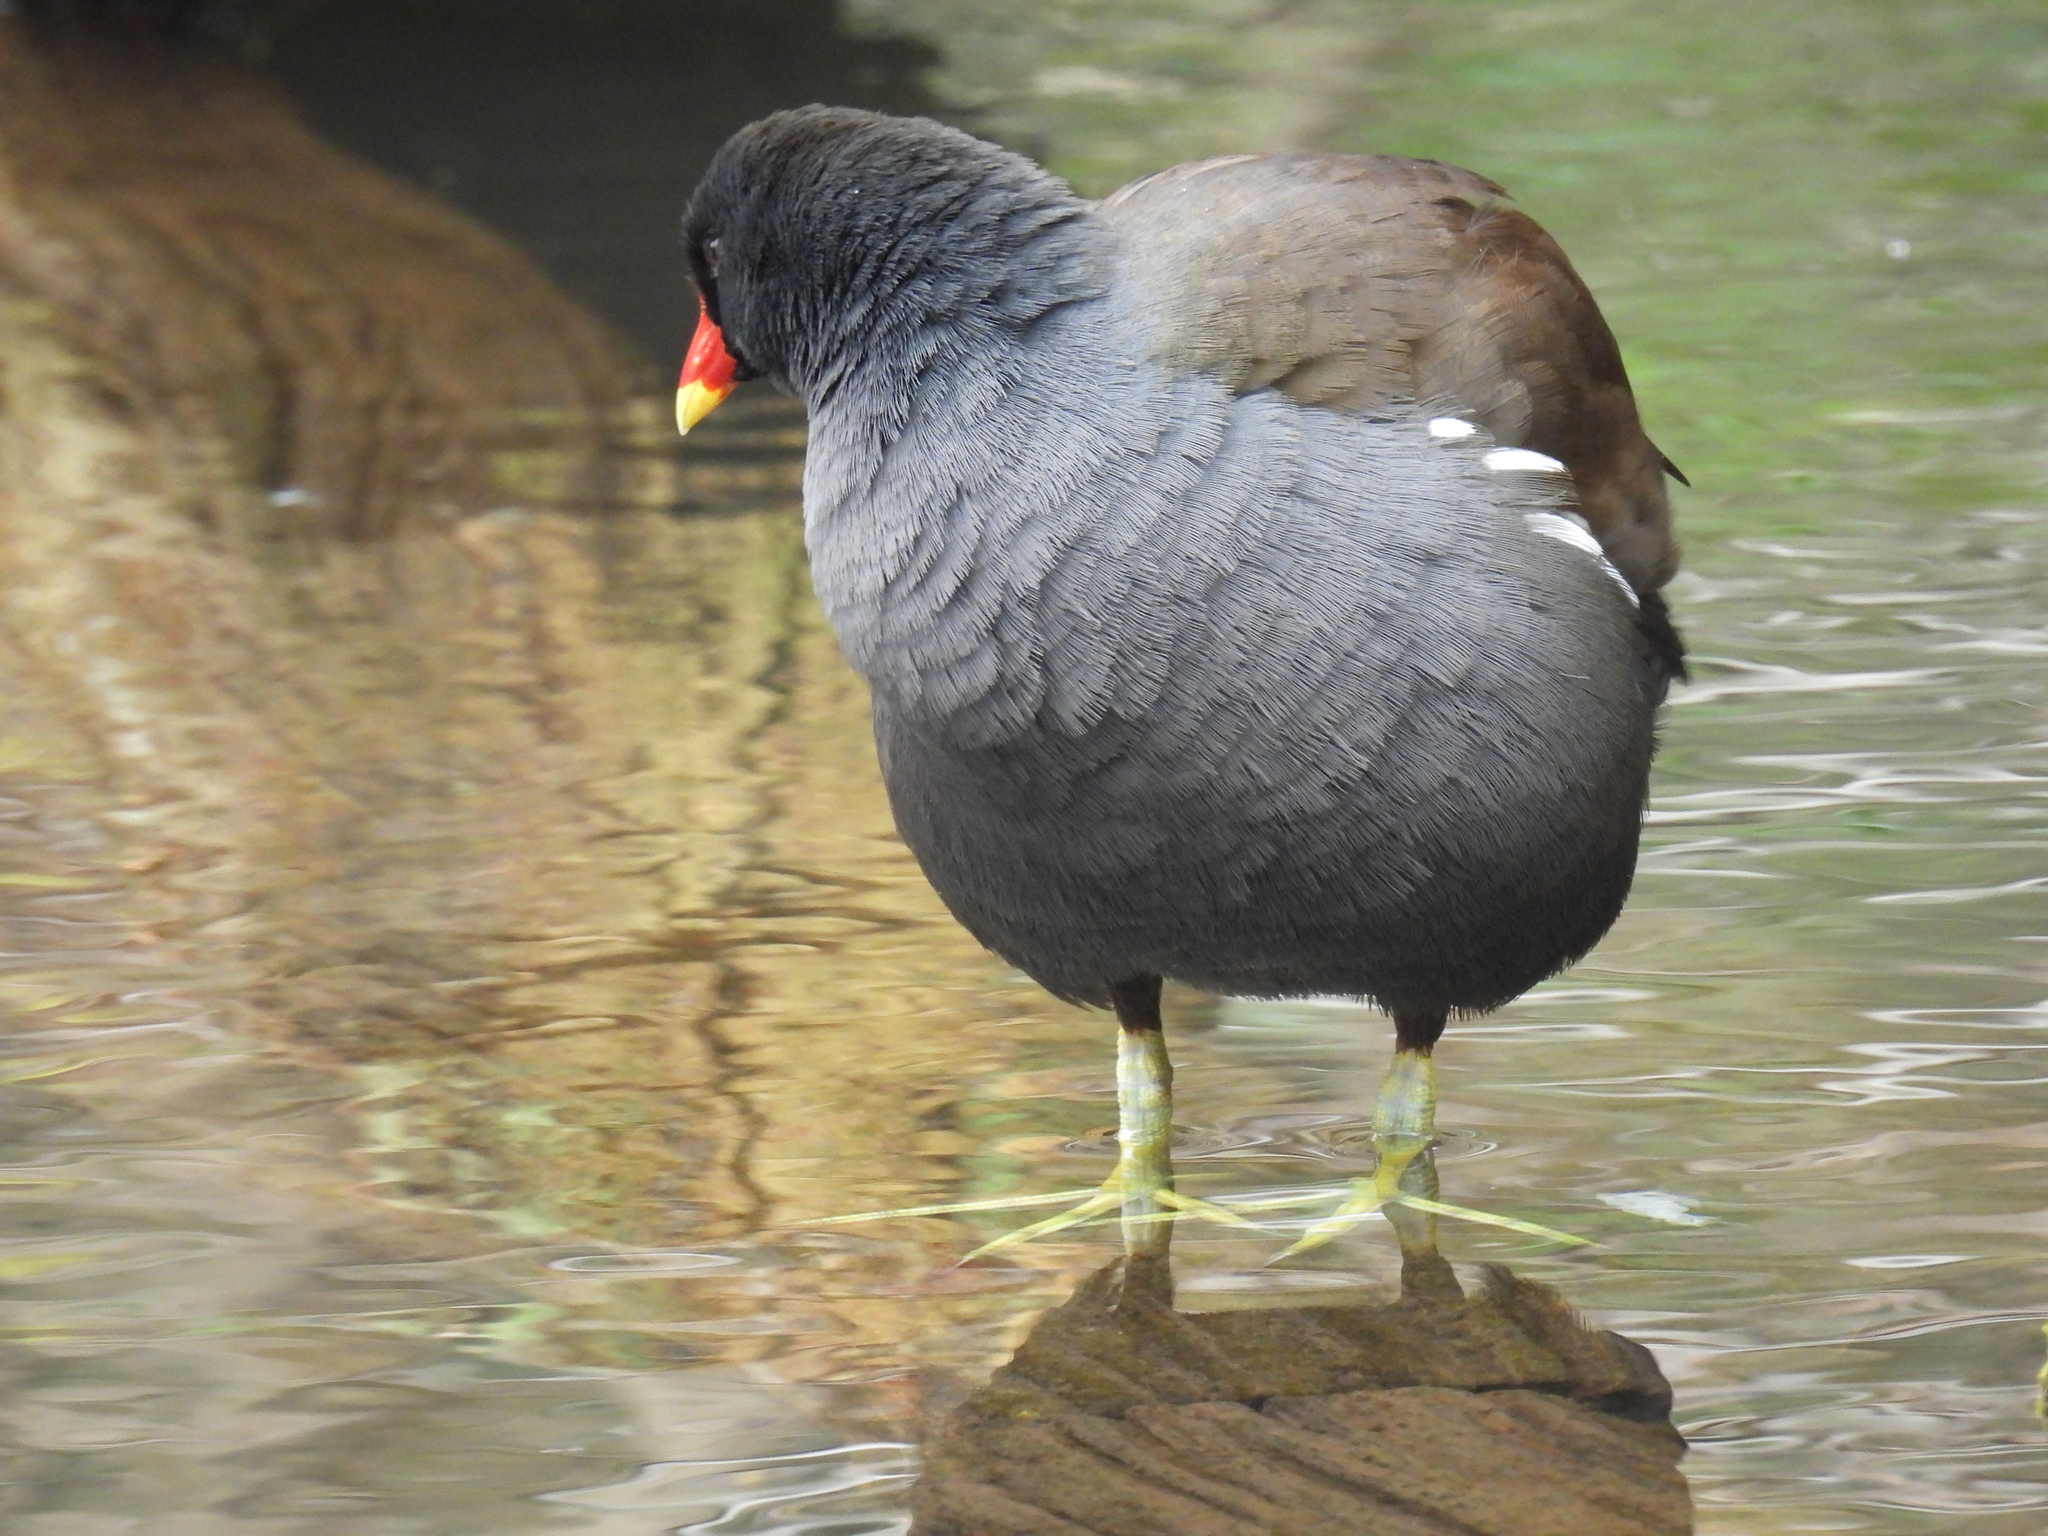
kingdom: Animalia
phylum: Chordata
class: Aves
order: Gruiformes
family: Rallidae
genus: Gallinula
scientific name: Gallinula chloropus
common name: Common moorhen
